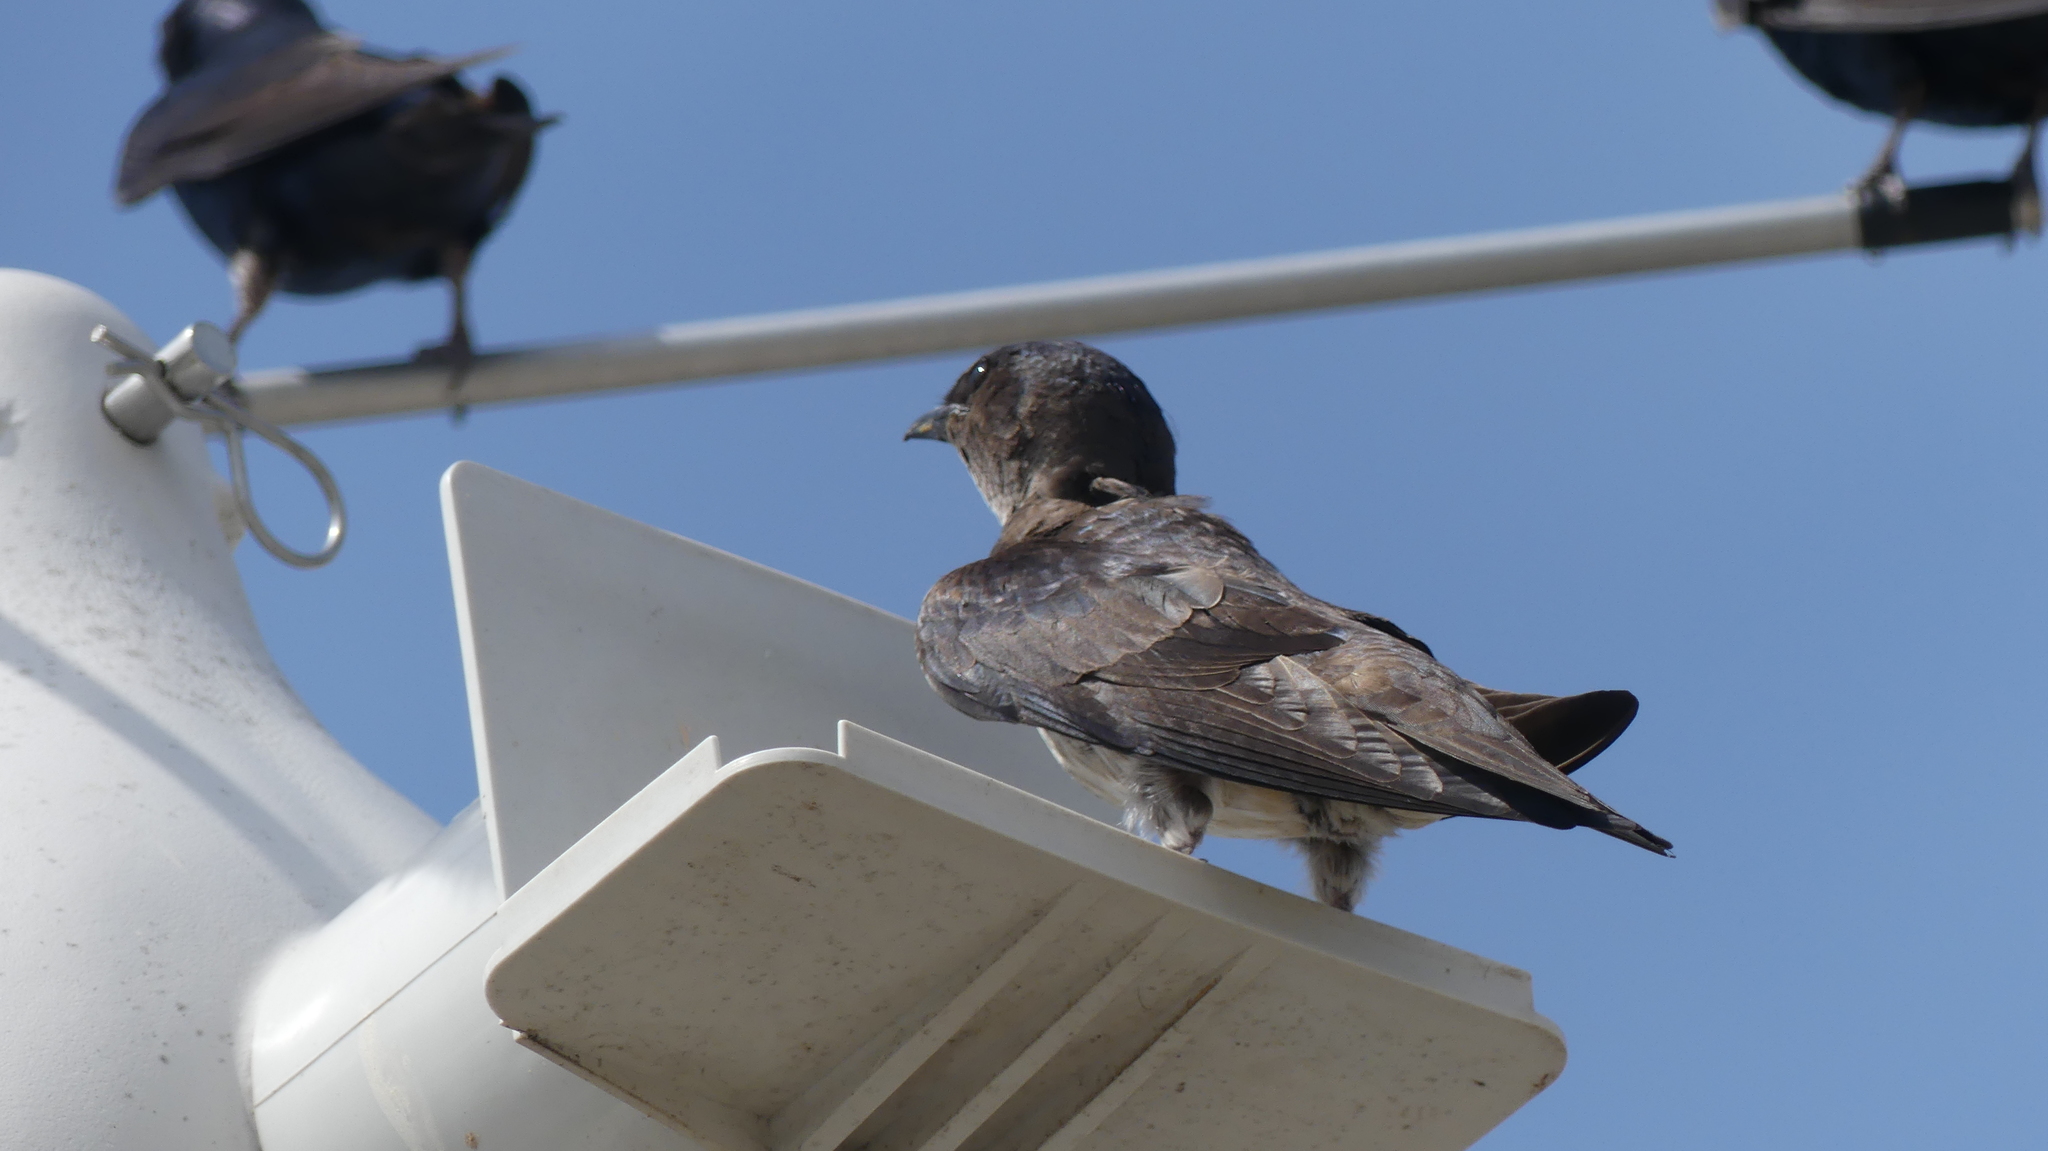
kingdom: Animalia
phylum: Chordata
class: Aves
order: Passeriformes
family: Hirundinidae
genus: Progne
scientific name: Progne subis
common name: Purple martin
